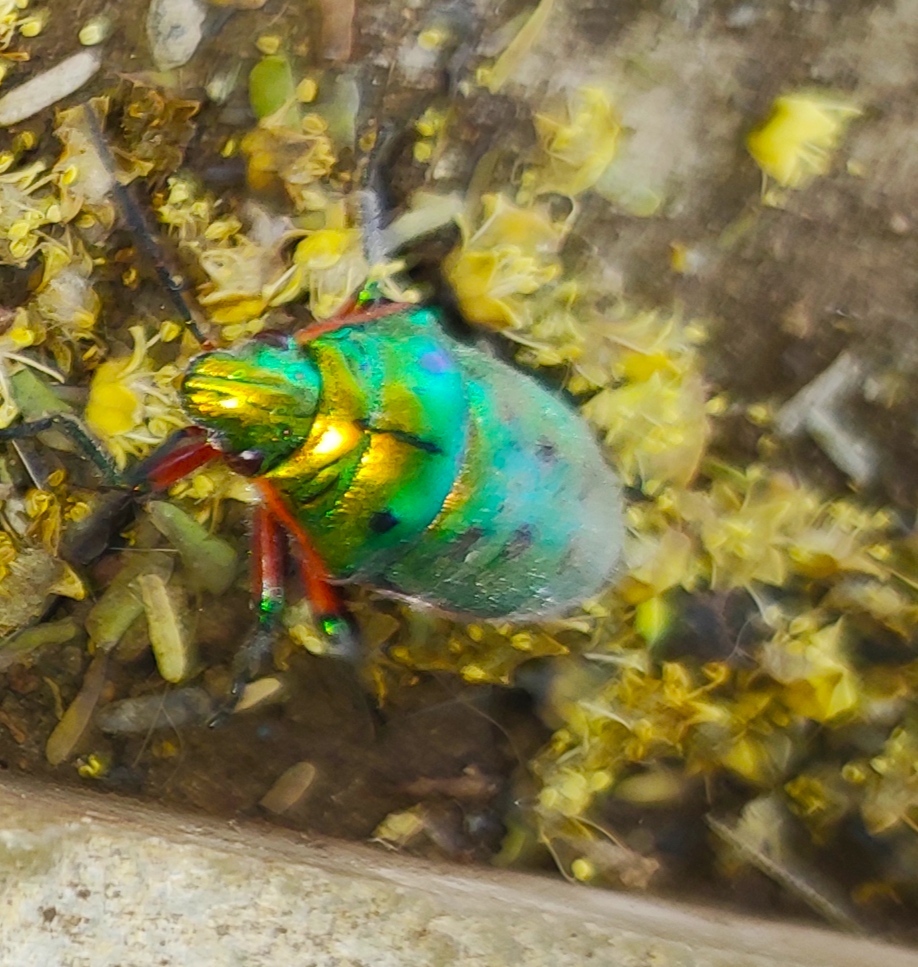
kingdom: Animalia
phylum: Arthropoda
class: Insecta
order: Hemiptera
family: Scutelleridae
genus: Scutellera
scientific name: Scutellera perplexa
